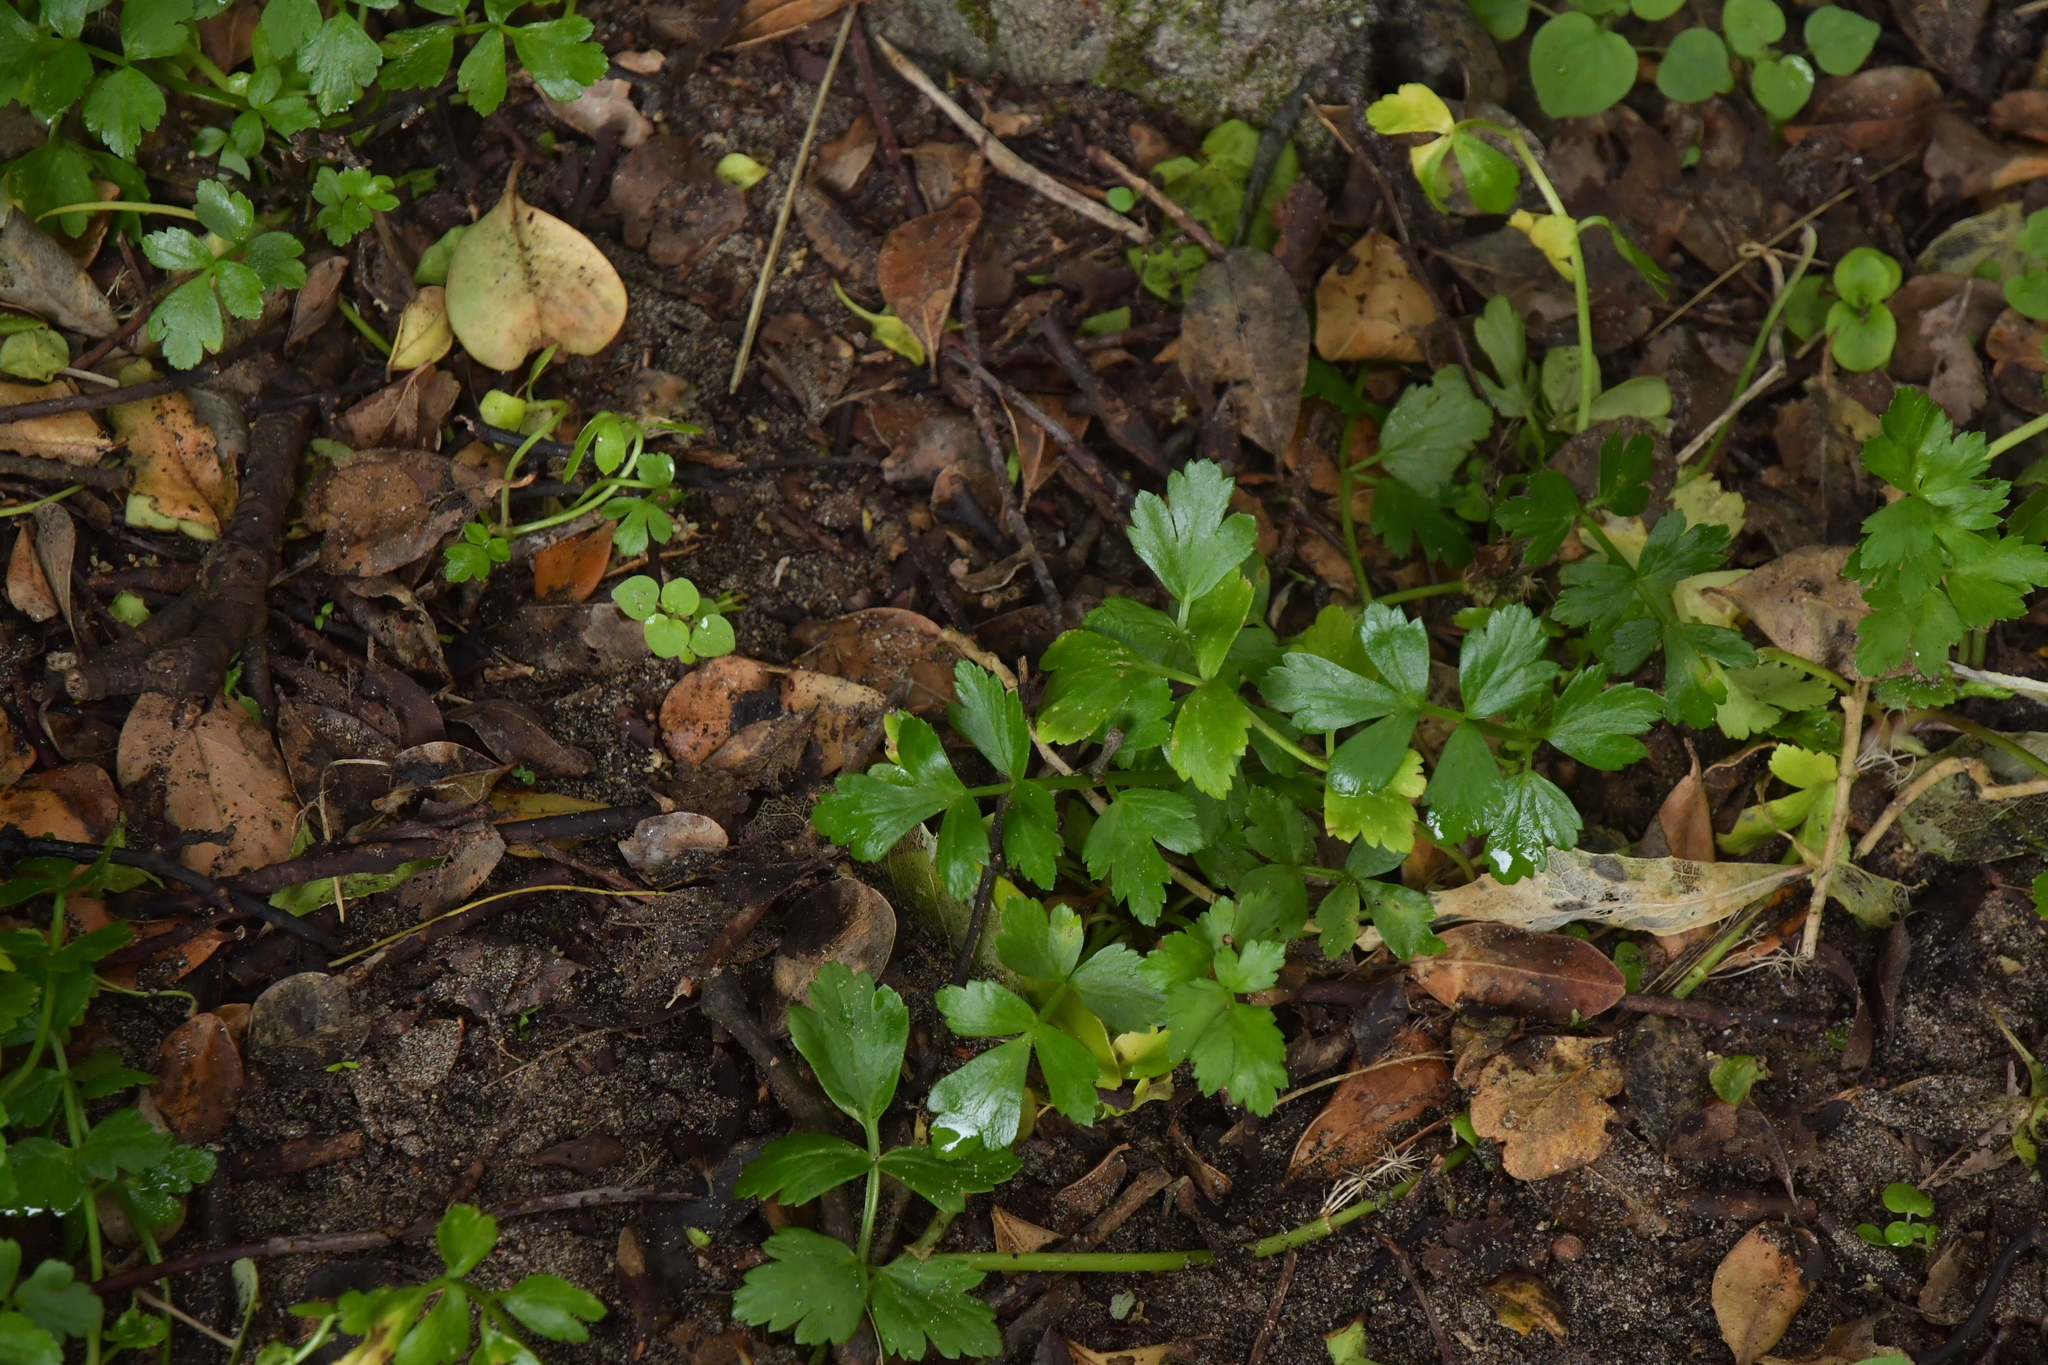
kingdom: Plantae
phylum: Tracheophyta
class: Magnoliopsida
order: Apiales
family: Apiaceae
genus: Apium
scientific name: Apium prostratum
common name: Prostrate marshwort
